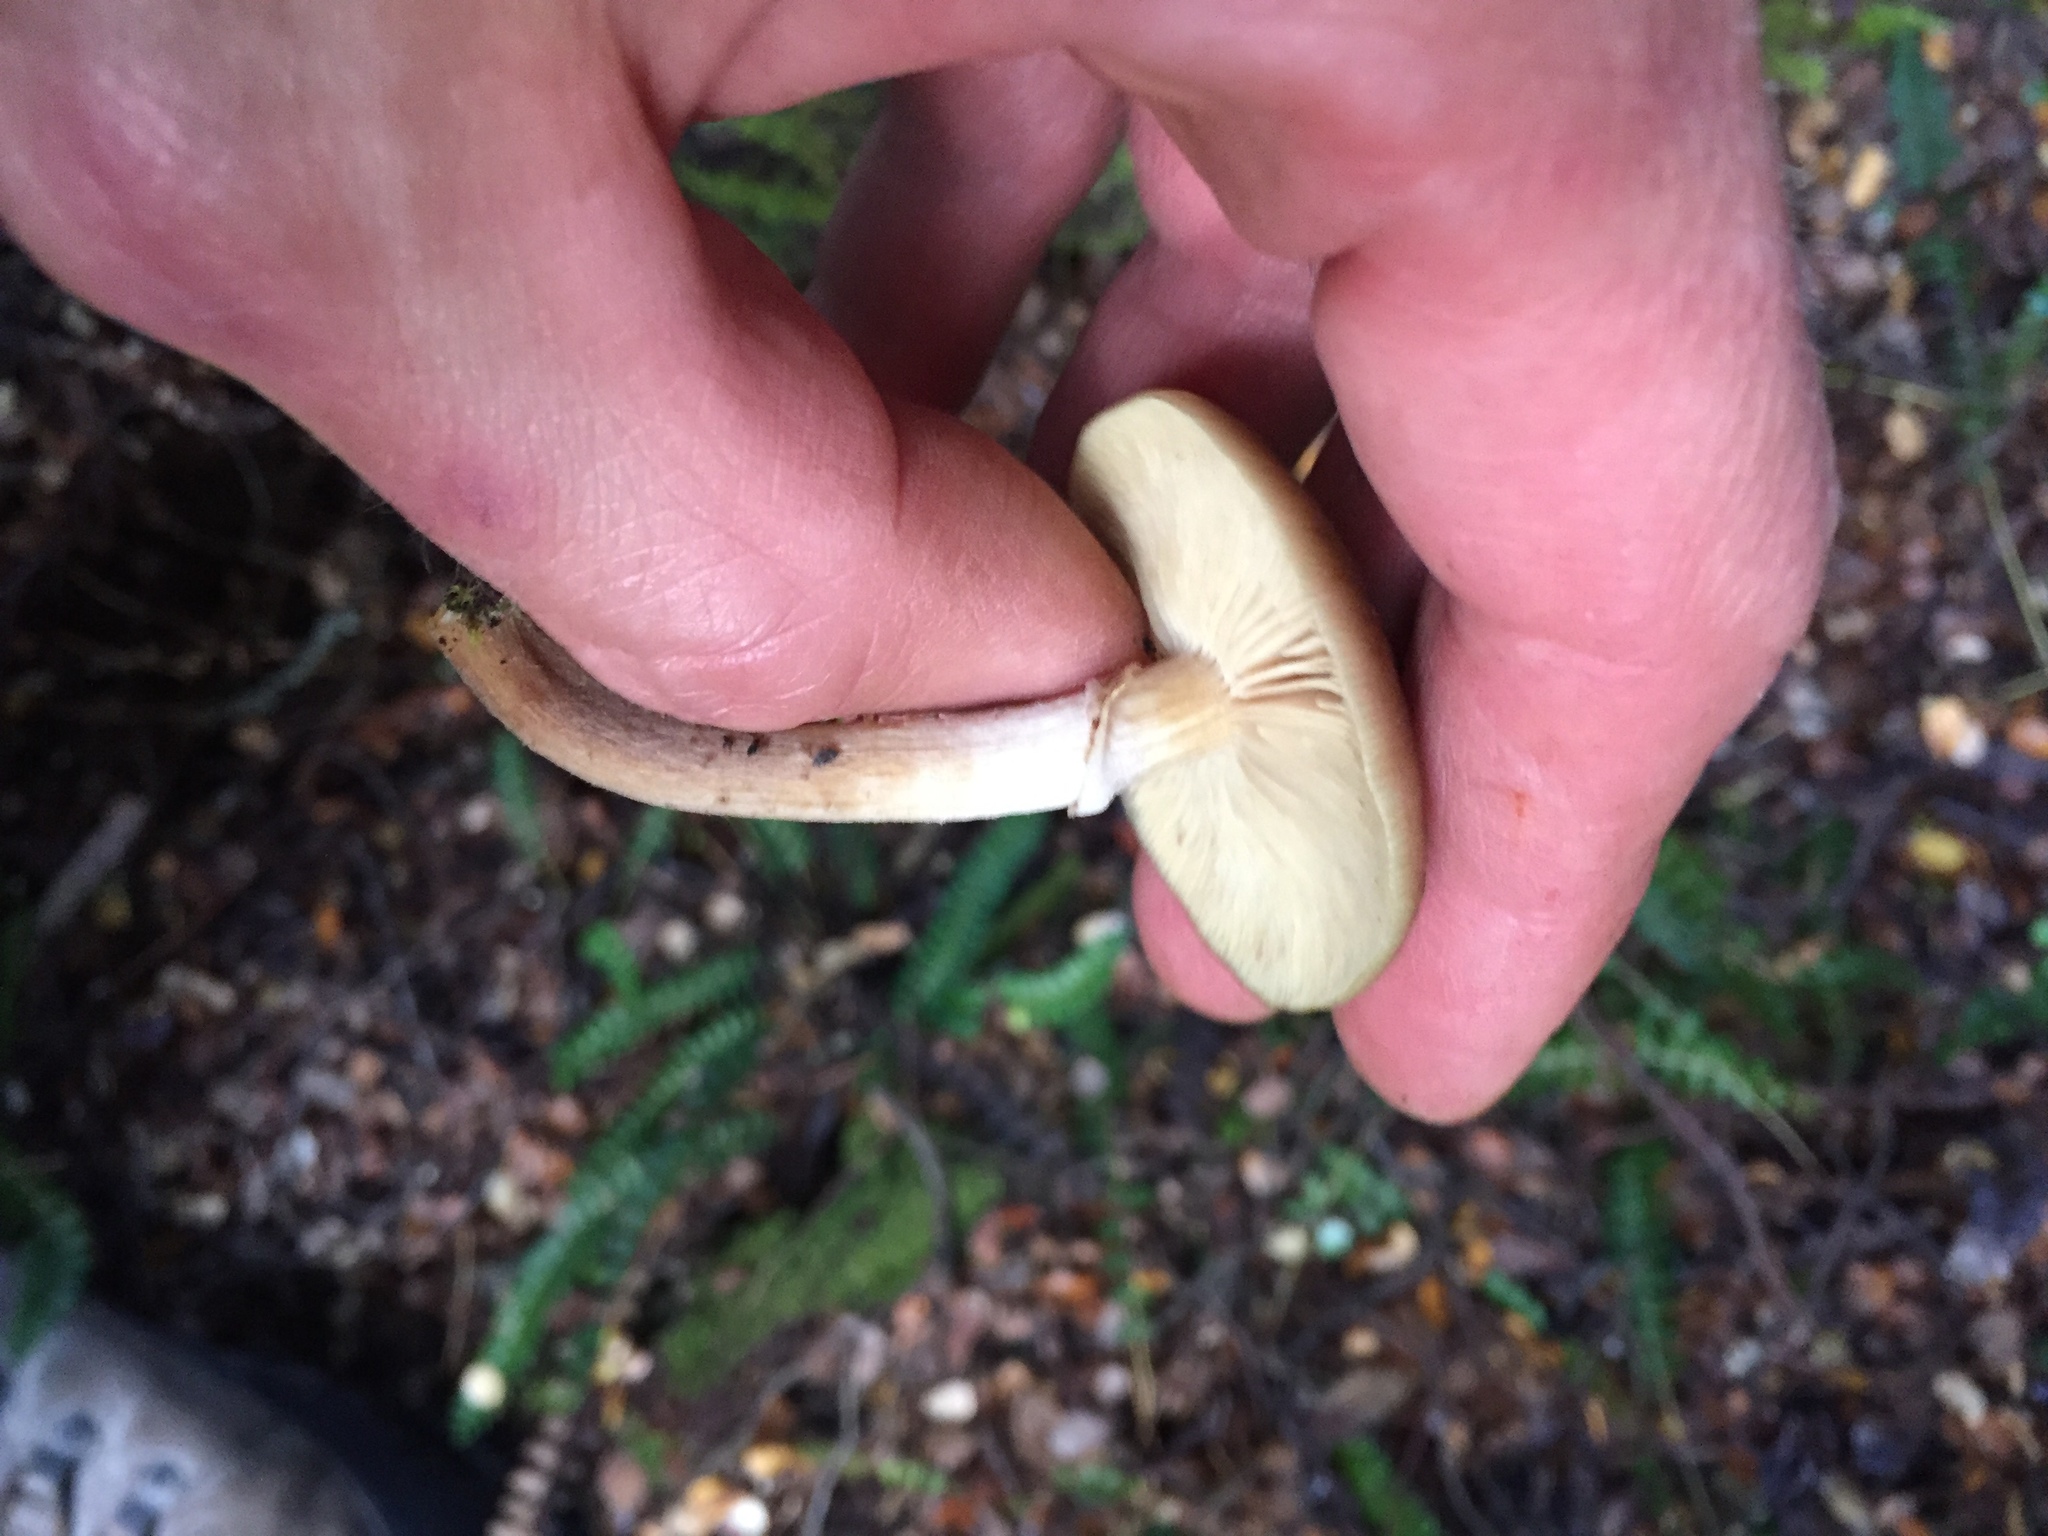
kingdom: Fungi
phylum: Basidiomycota
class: Agaricomycetes
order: Agaricales
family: Physalacriaceae
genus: Armillaria
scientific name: Armillaria novae-zelandiae
